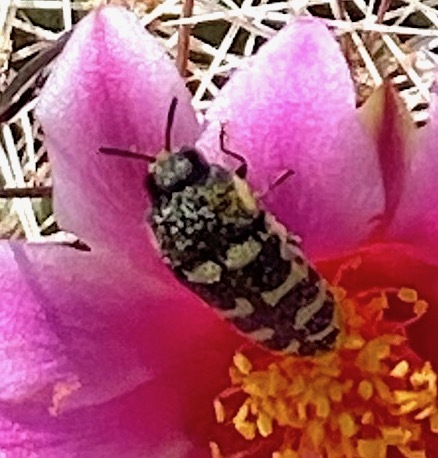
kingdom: Animalia
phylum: Arthropoda
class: Insecta
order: Coleoptera
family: Buprestidae
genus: Acmaeodera
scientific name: Acmaeodera alicia
